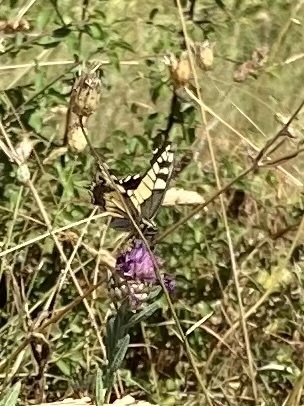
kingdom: Animalia
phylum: Arthropoda
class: Insecta
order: Lepidoptera
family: Papilionidae
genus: Papilio
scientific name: Papilio machaon
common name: Swallowtail
